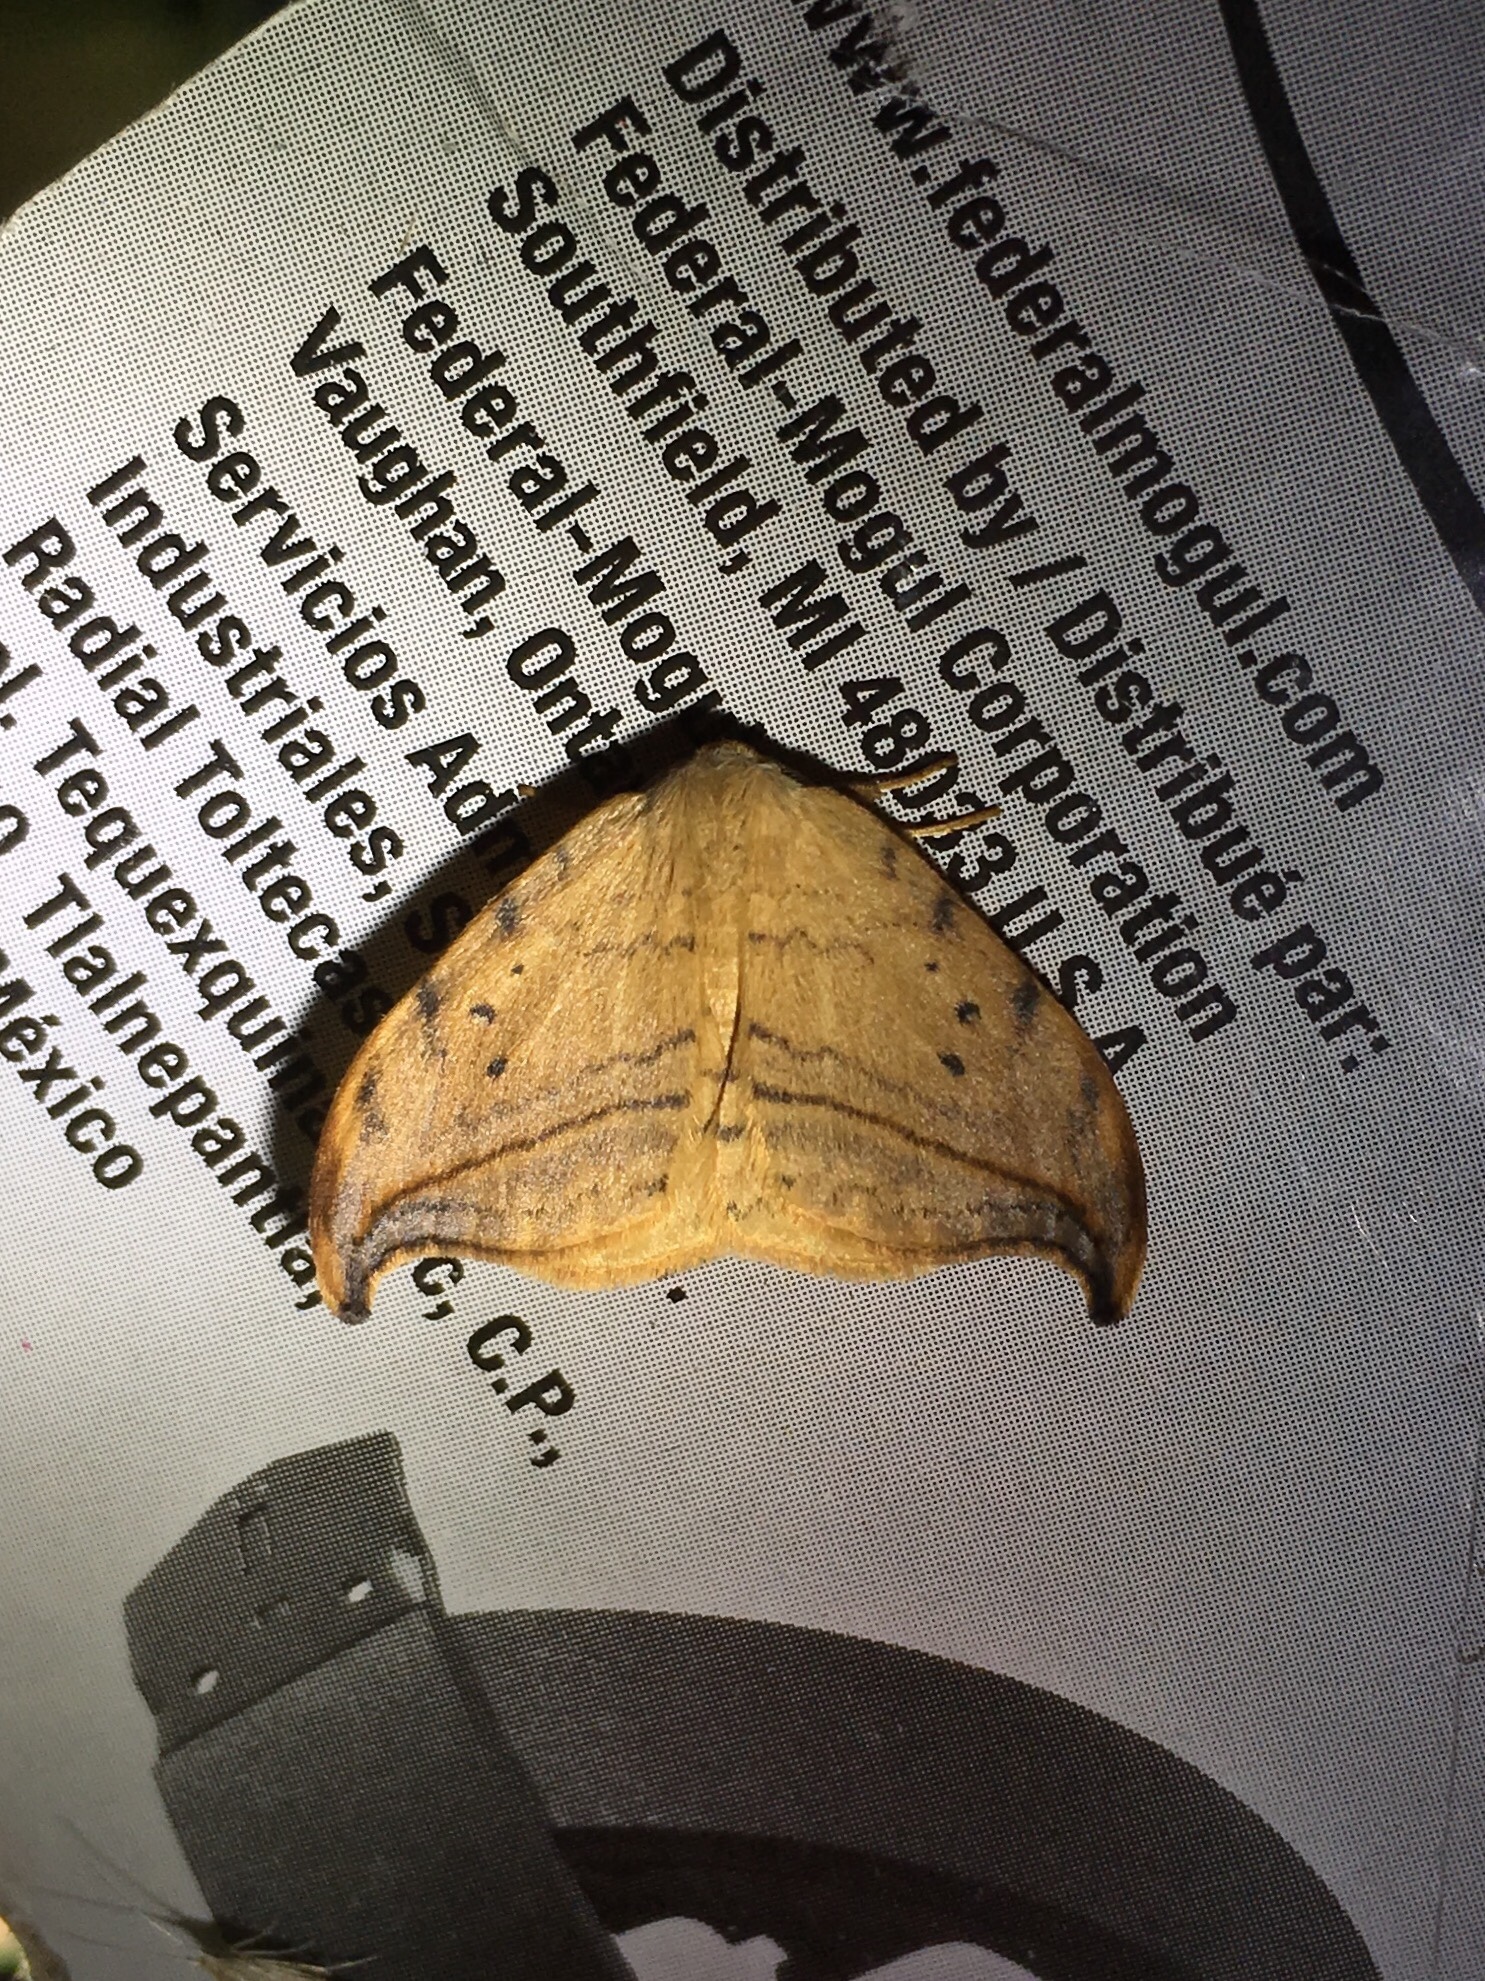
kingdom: Animalia
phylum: Arthropoda
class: Insecta
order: Lepidoptera
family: Drepanidae
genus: Drepana
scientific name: Drepana arcuata
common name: Arched hooktip moth
